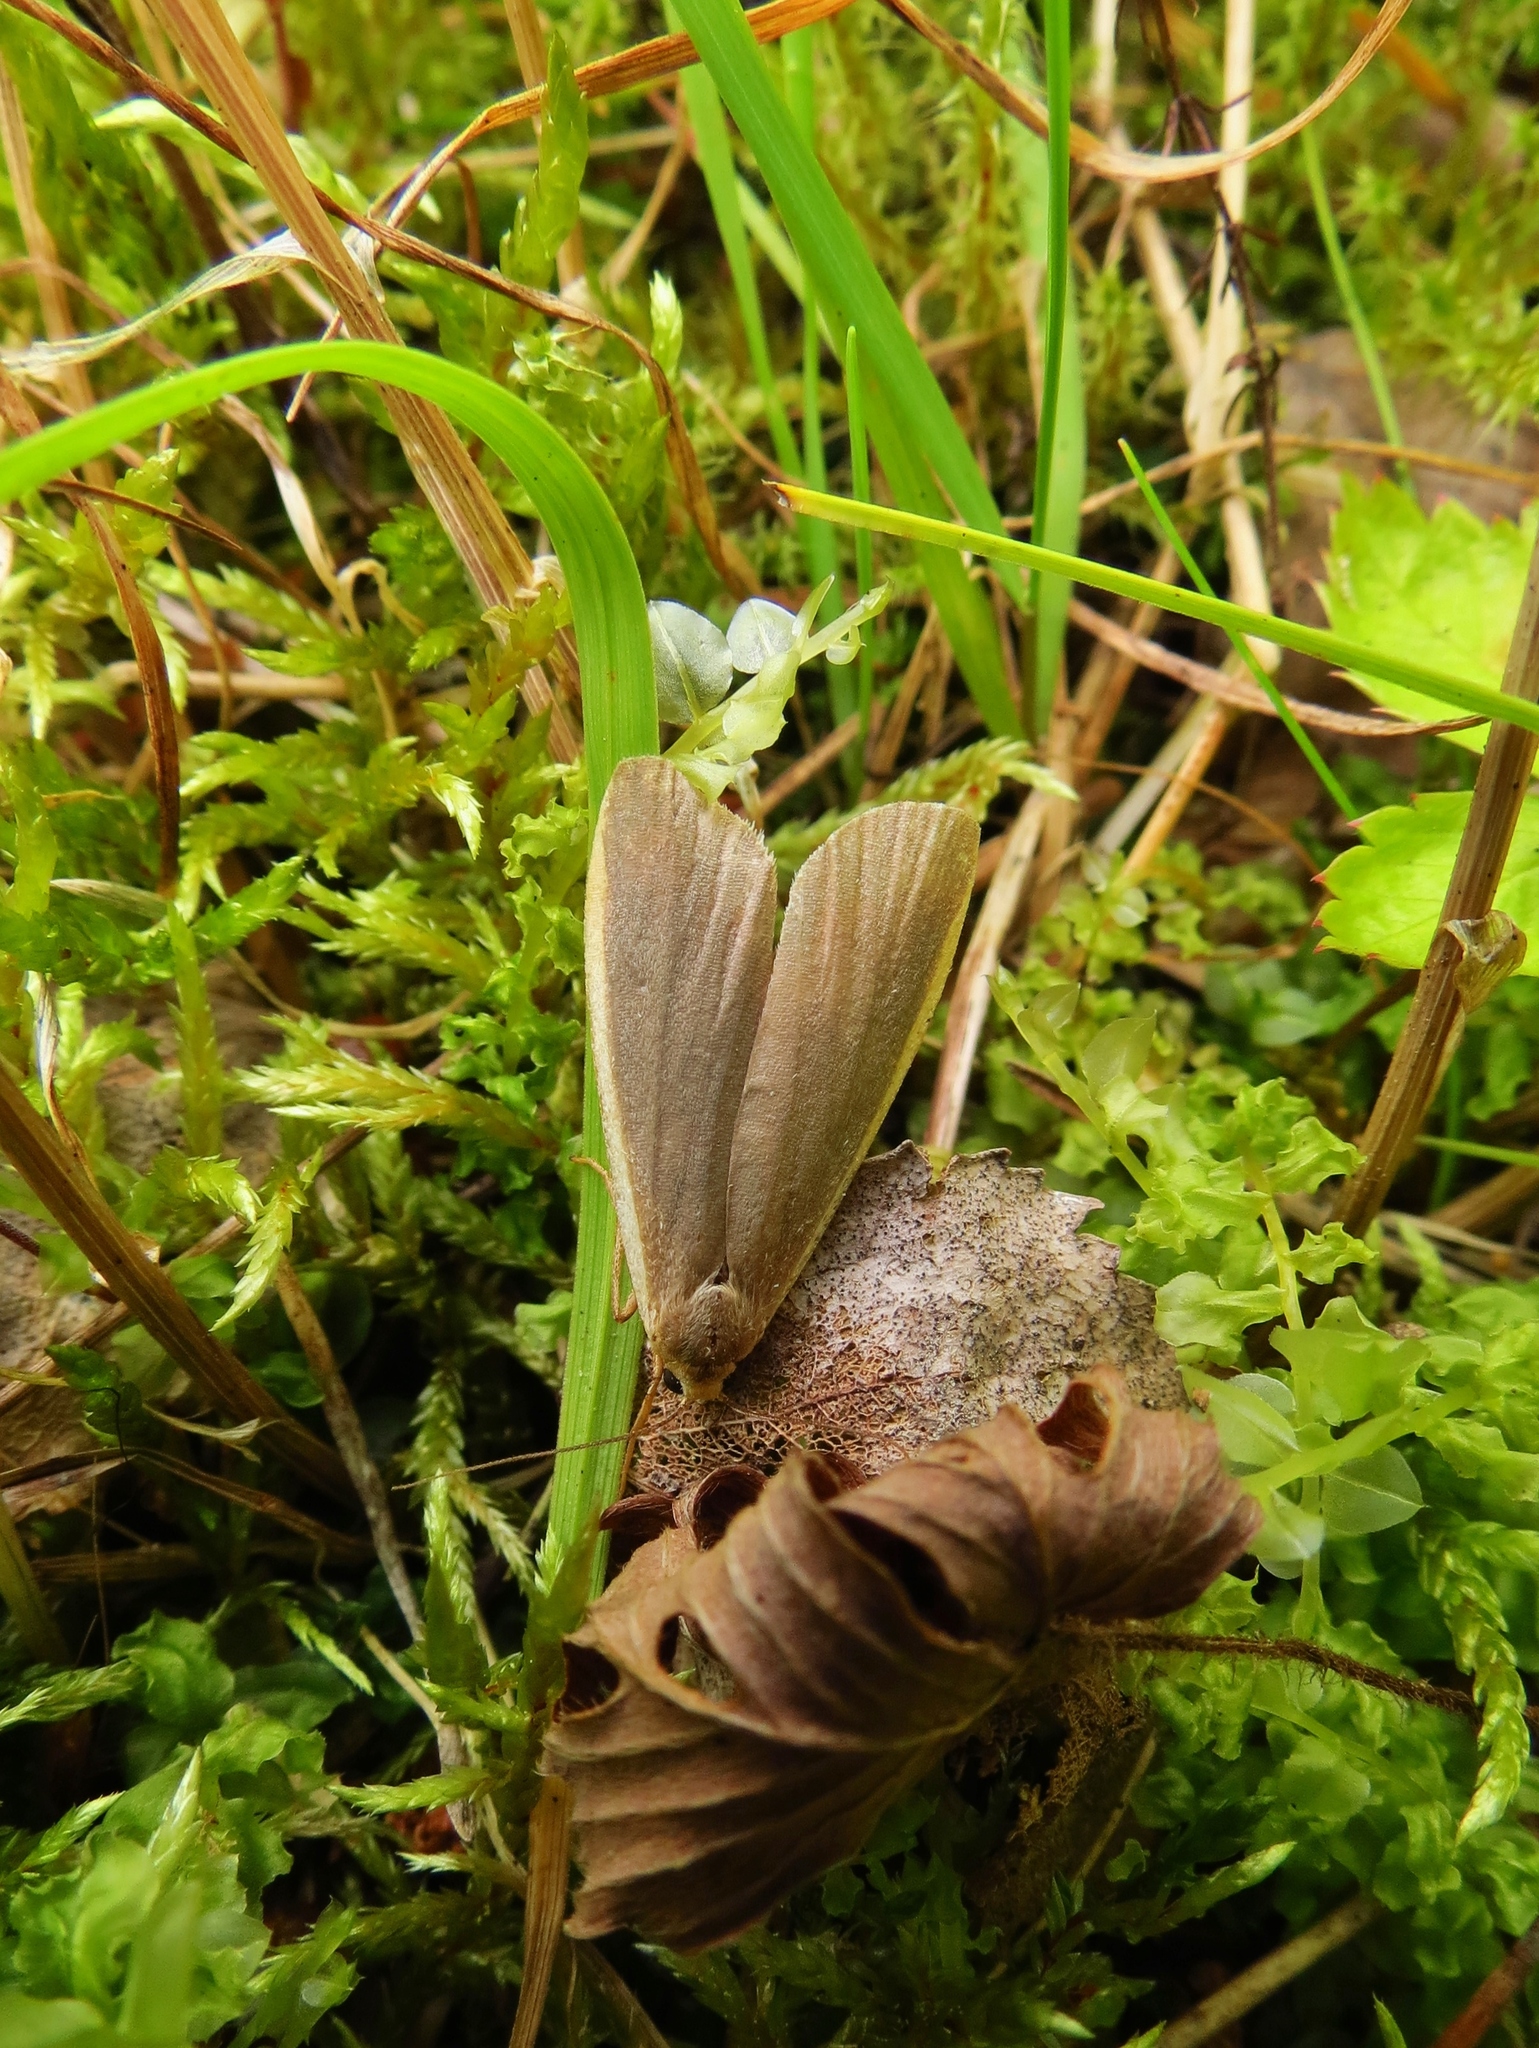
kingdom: Animalia
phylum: Arthropoda
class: Insecta
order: Lepidoptera
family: Erebidae
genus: Collita
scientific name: Collita griseola
